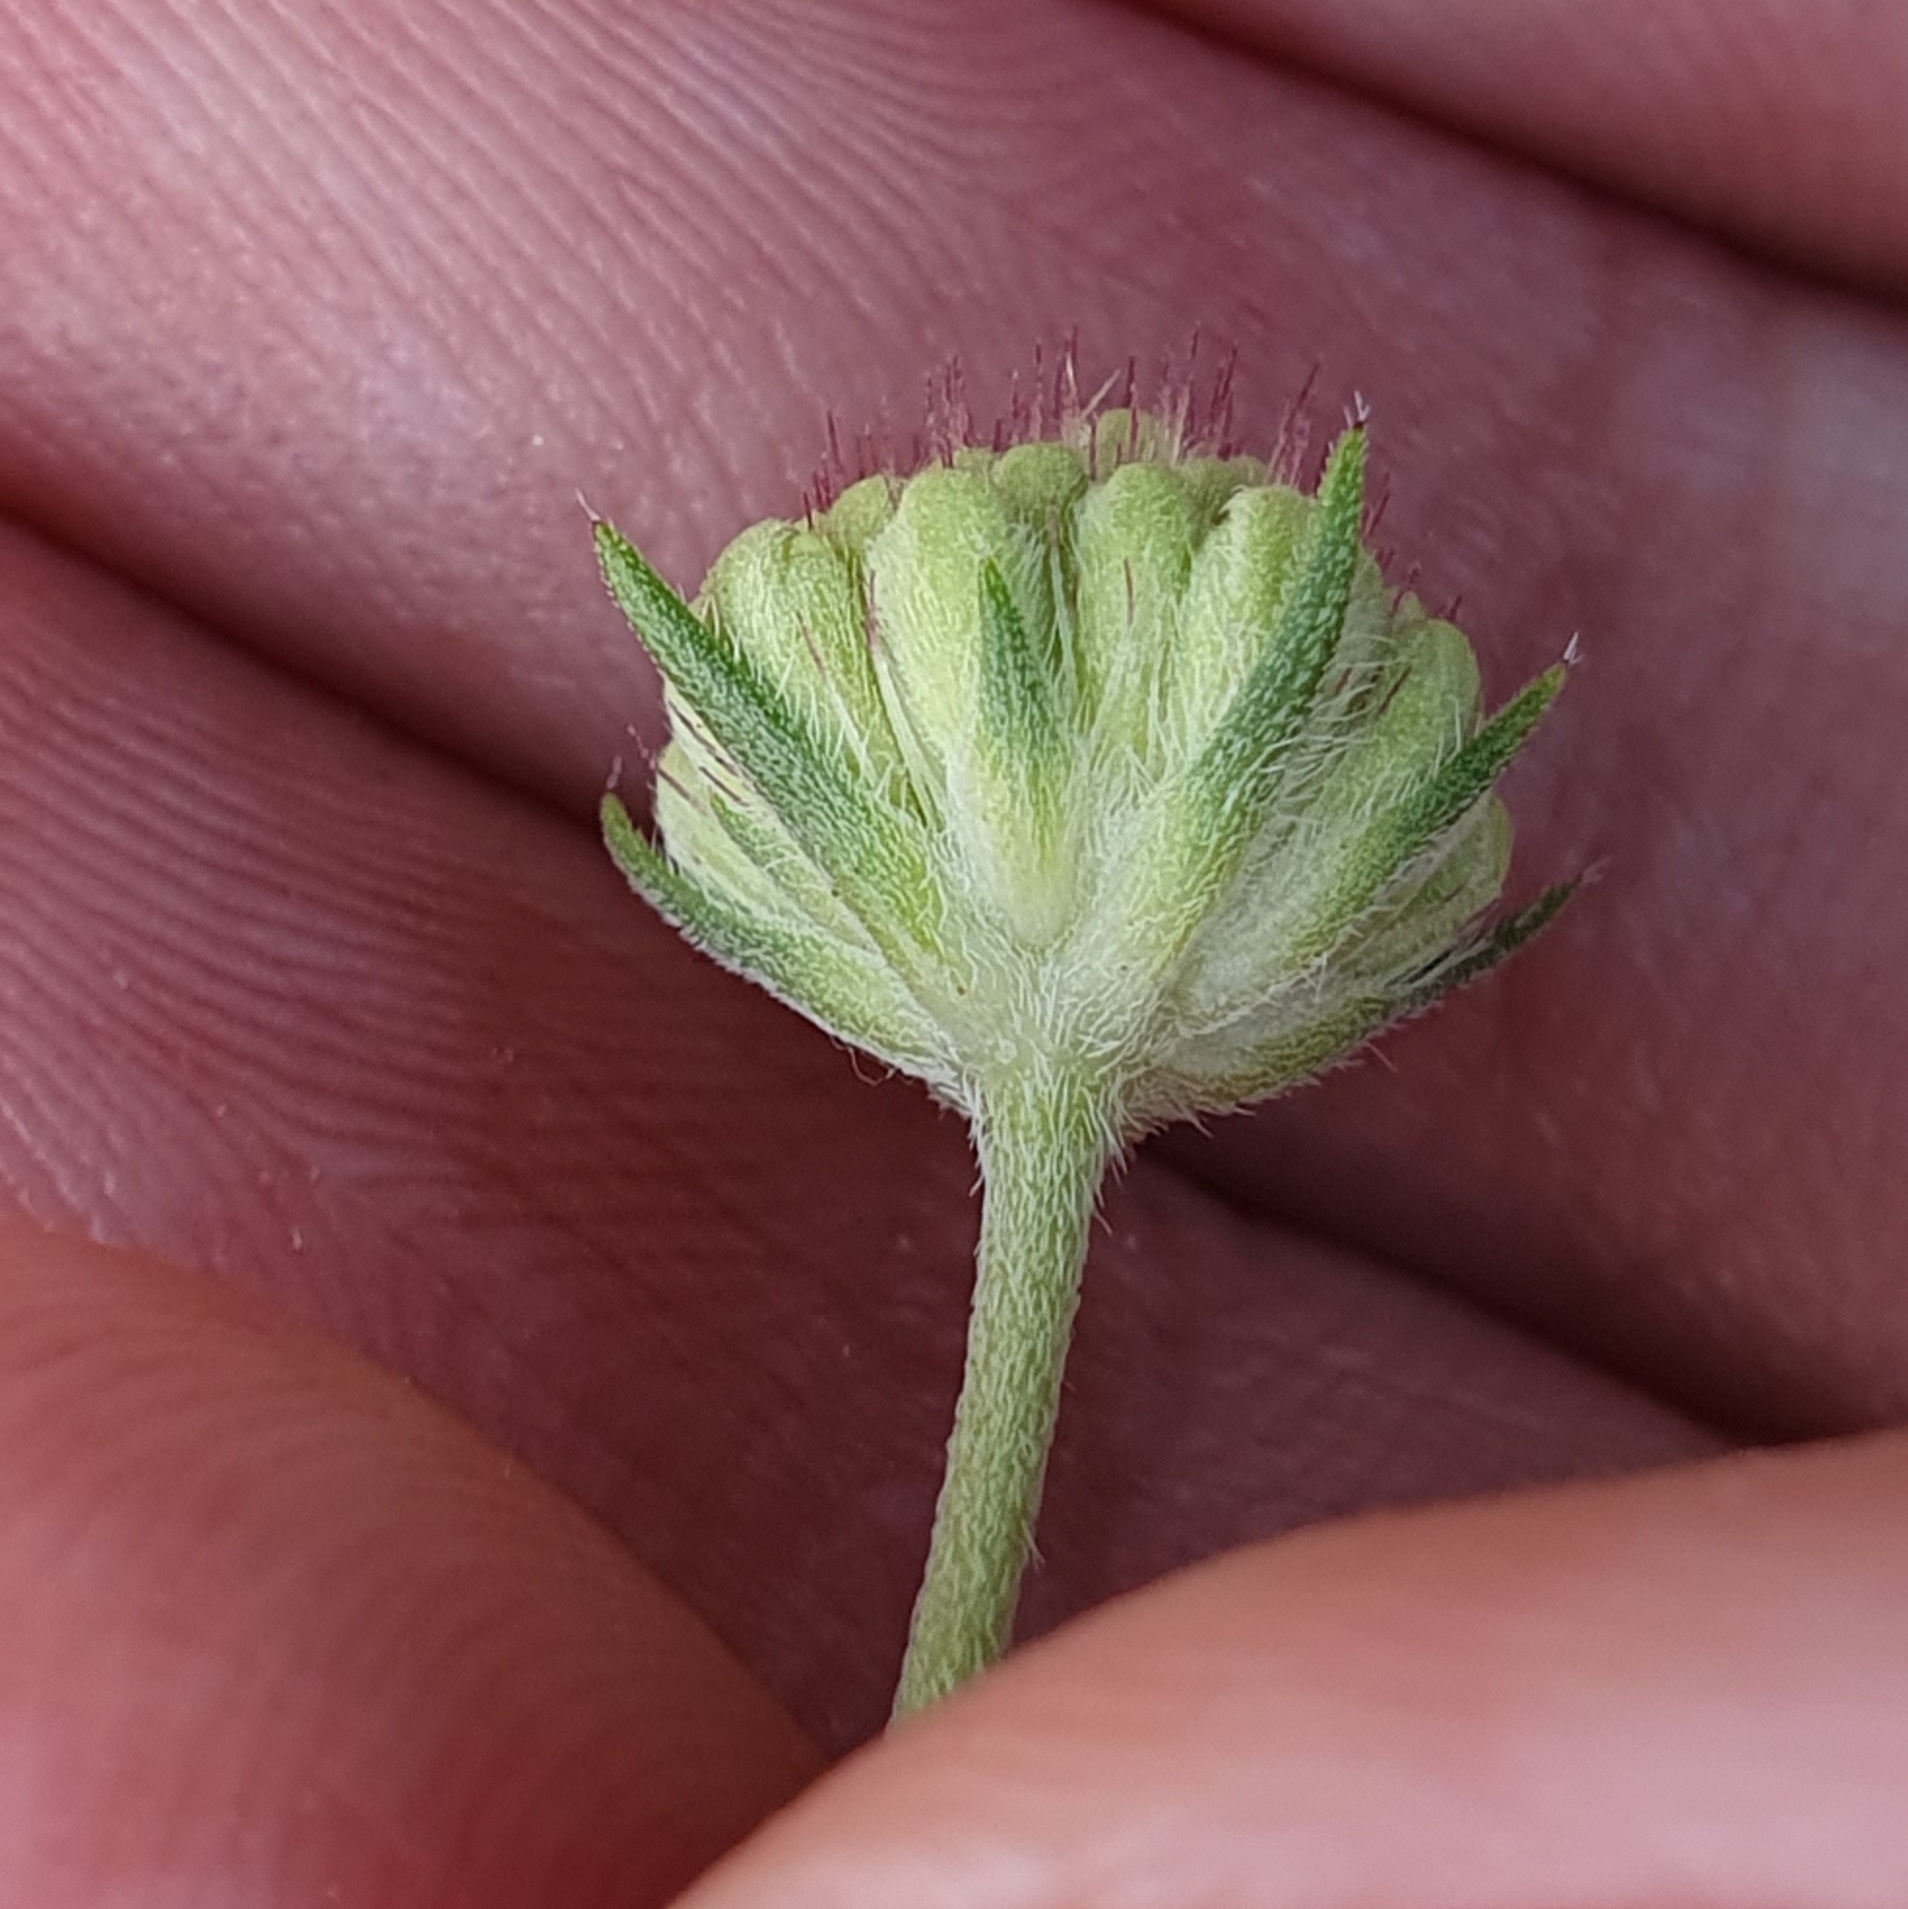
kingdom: Plantae
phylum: Tracheophyta
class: Magnoliopsida
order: Dipsacales
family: Caprifoliaceae
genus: Sixalix
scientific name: Sixalix maritima
